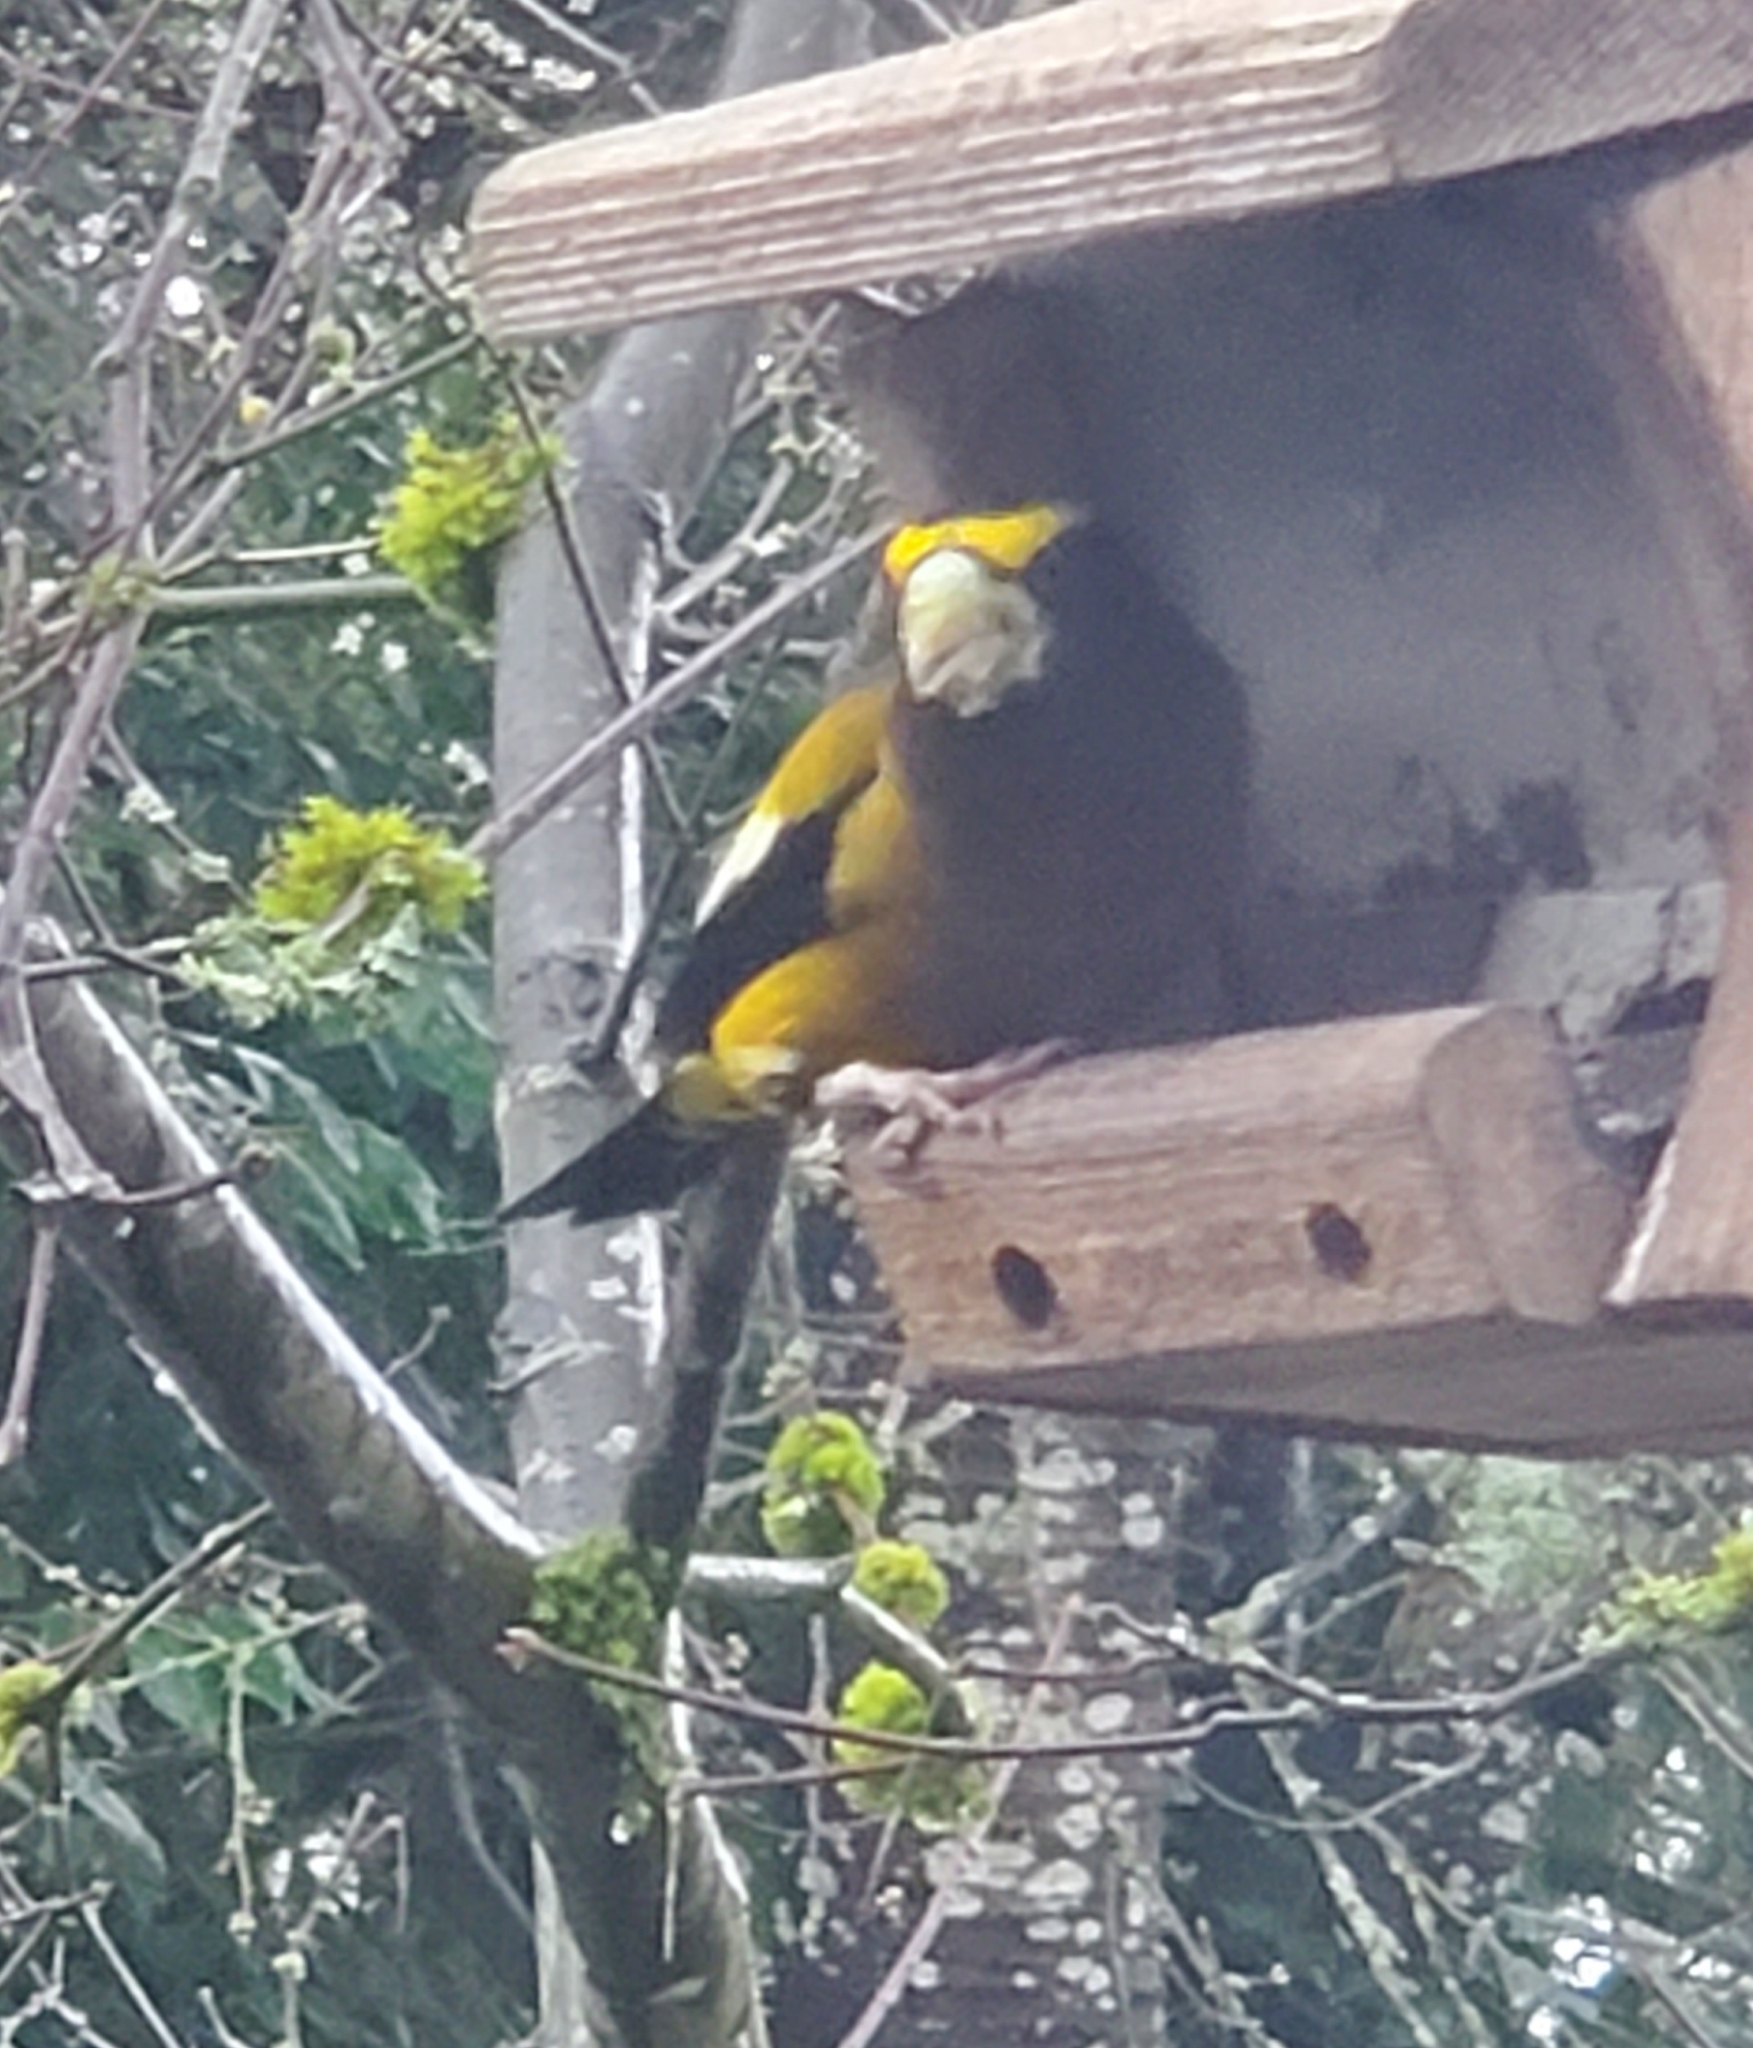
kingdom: Animalia
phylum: Chordata
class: Aves
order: Passeriformes
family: Fringillidae
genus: Hesperiphona
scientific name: Hesperiphona vespertina
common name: Evening grosbeak
